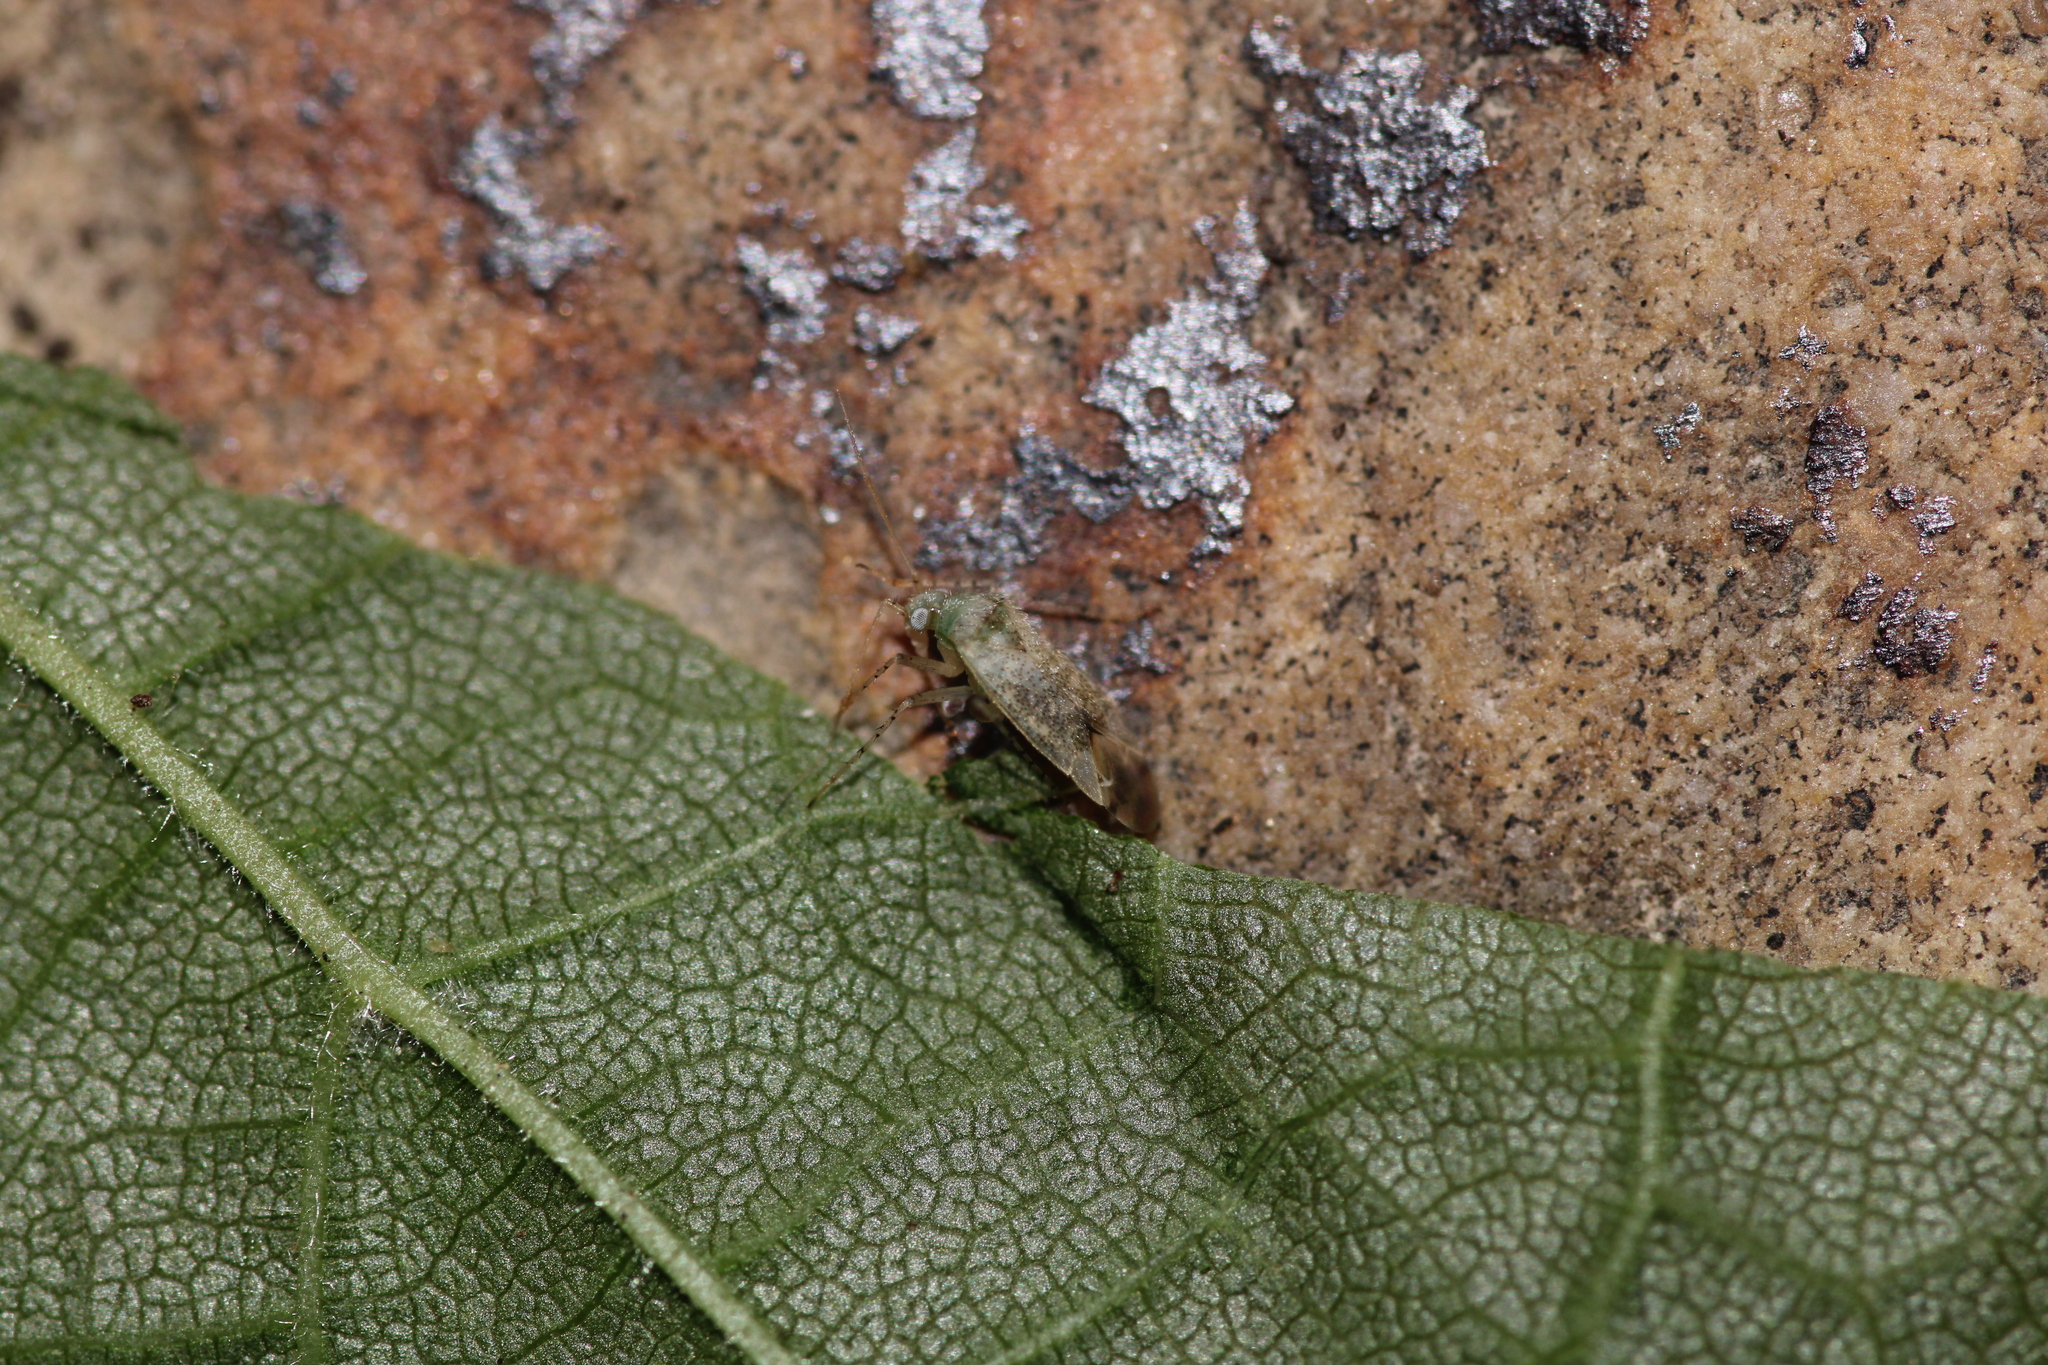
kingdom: Animalia
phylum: Arthropoda
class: Insecta
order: Hemiptera
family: Miridae
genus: Compsidolon
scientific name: Compsidolon salicellum
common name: Plant bug
